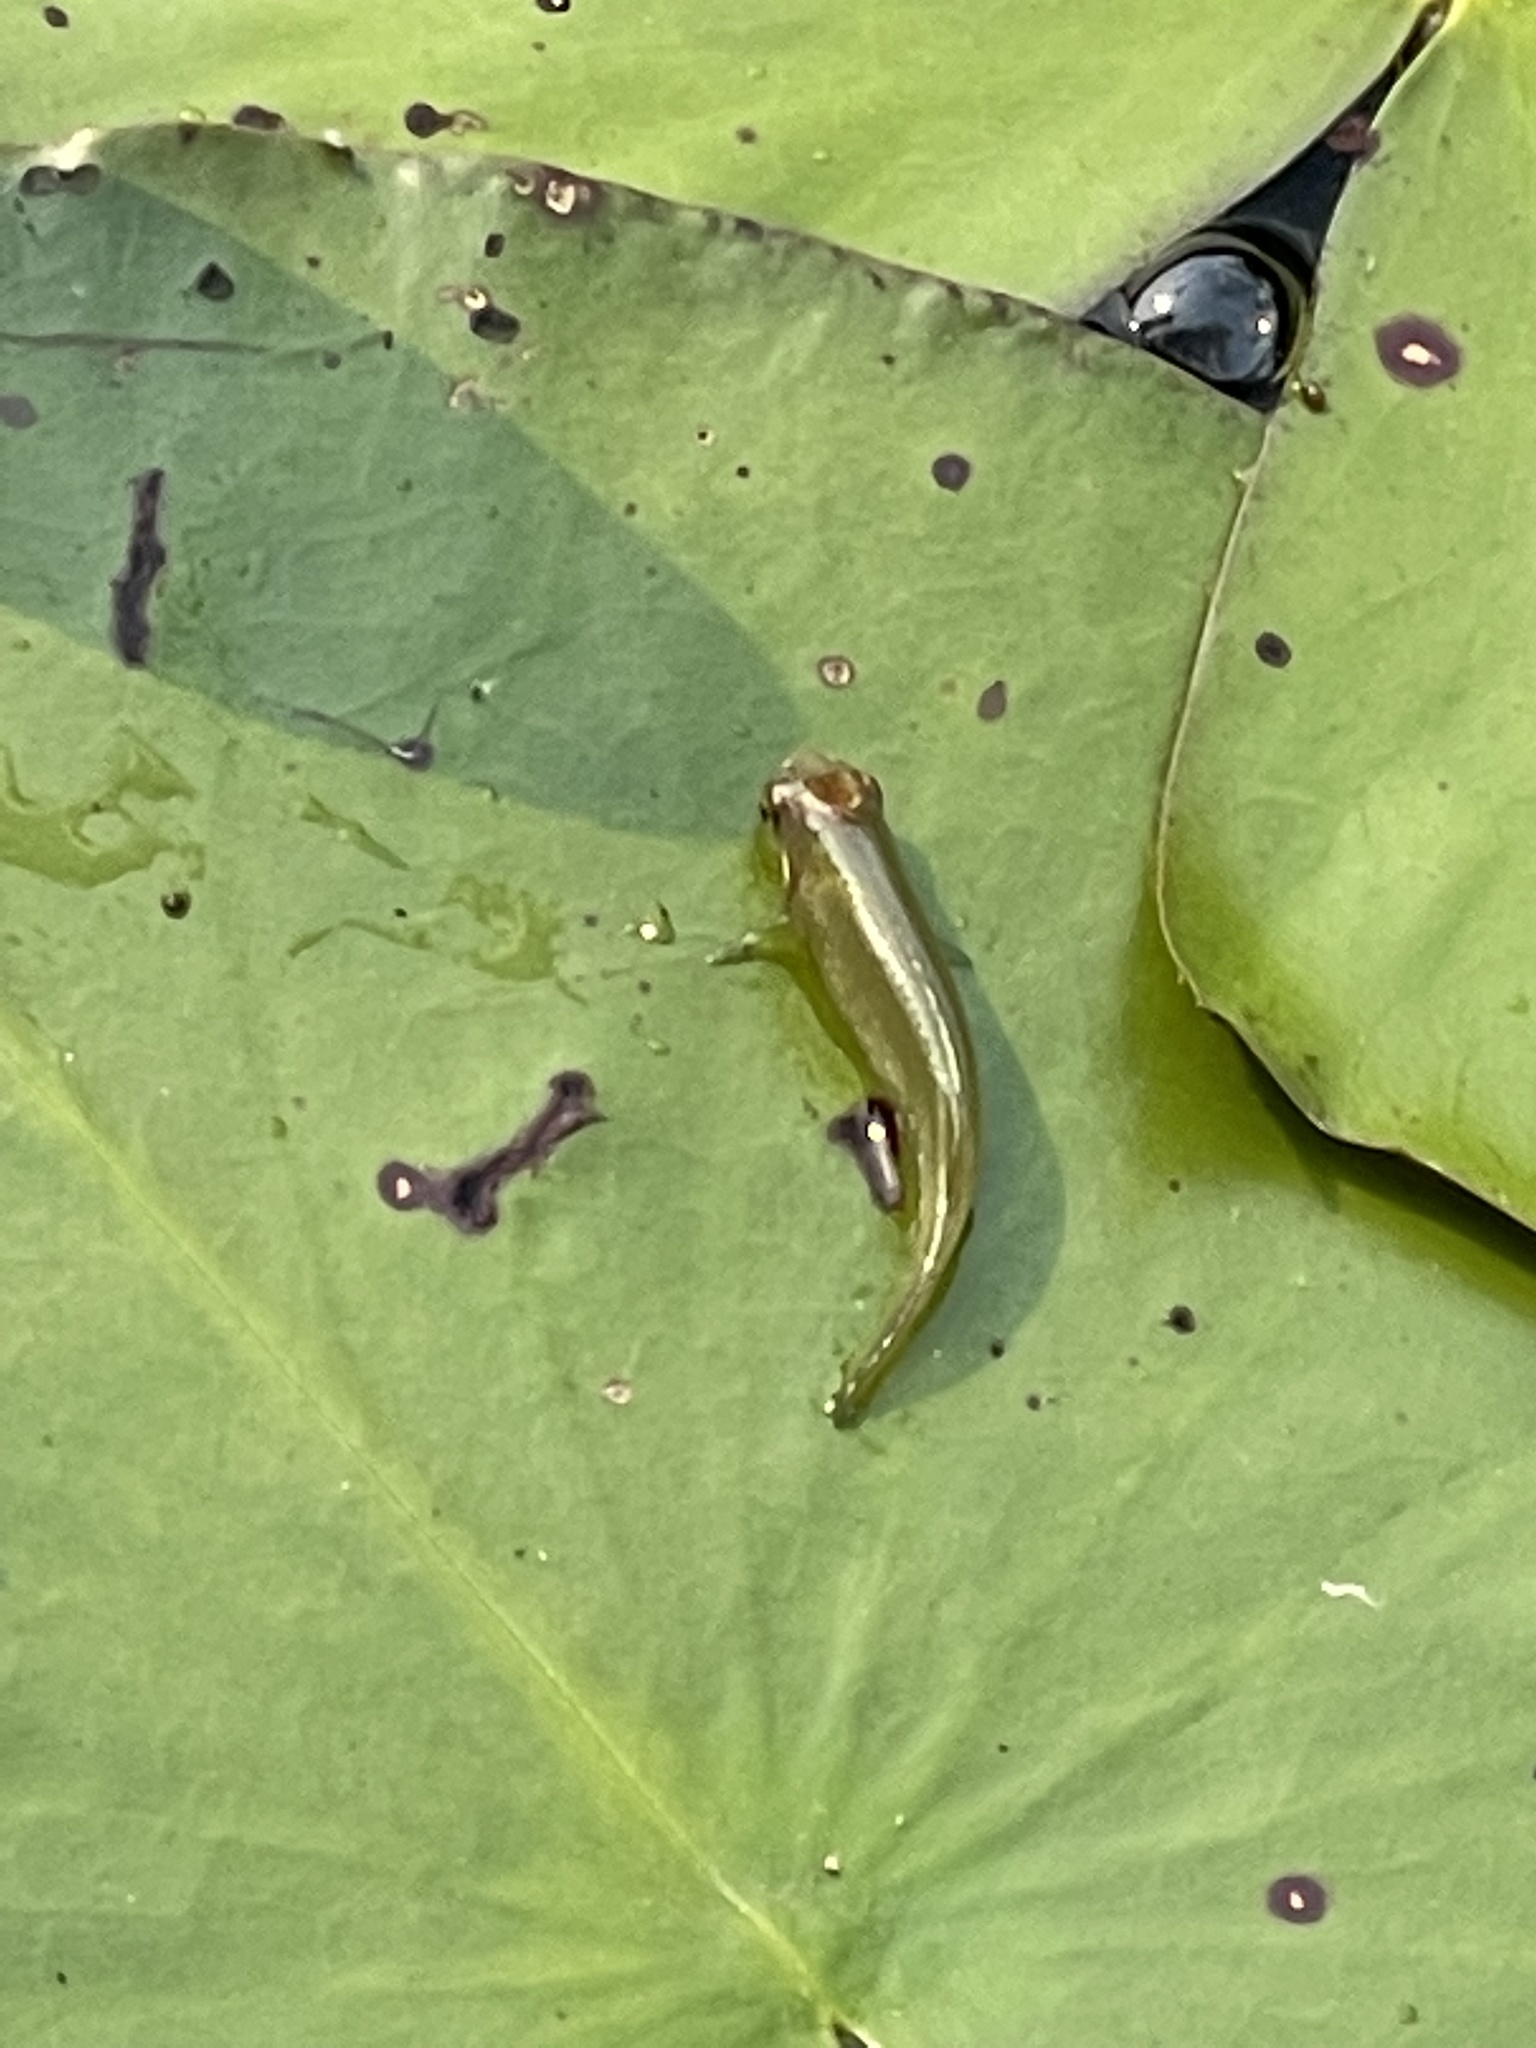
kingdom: Animalia
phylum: Chordata
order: Cyprinodontiformes
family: Fundulidae
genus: Fundulus
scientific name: Fundulus chrysotus
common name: Golden topminnow
